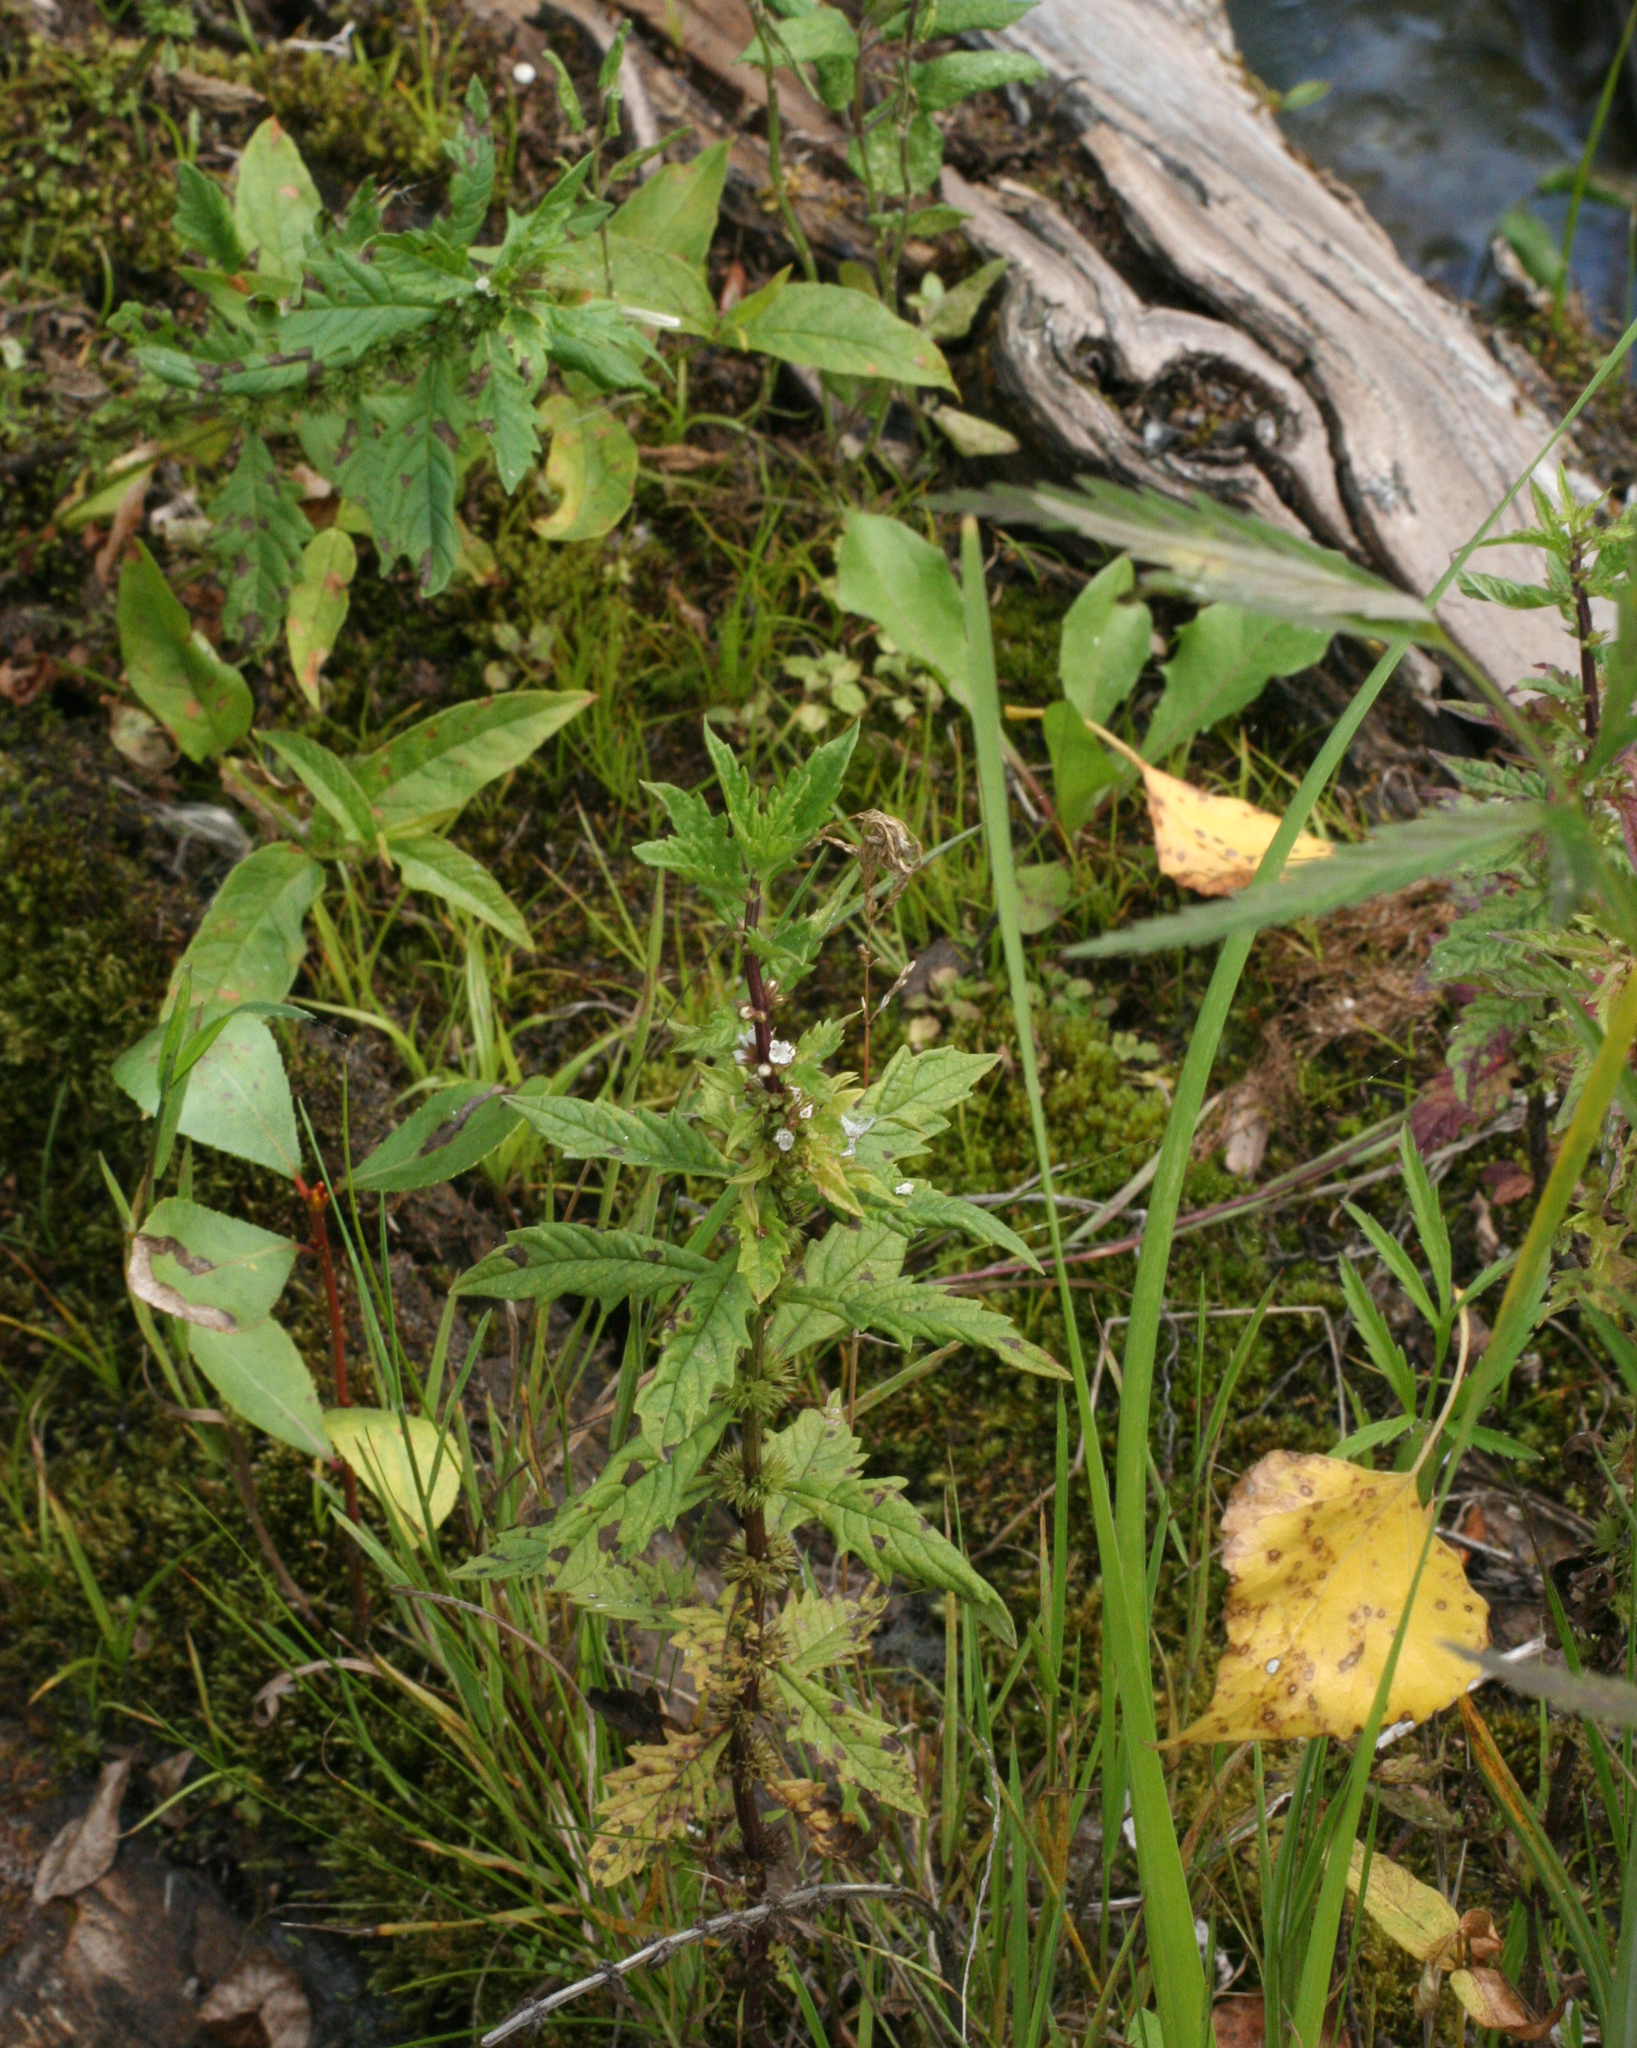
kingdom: Plantae
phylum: Tracheophyta
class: Magnoliopsida
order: Lamiales
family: Lamiaceae
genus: Lycopus
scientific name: Lycopus europaeus
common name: European bugleweed
